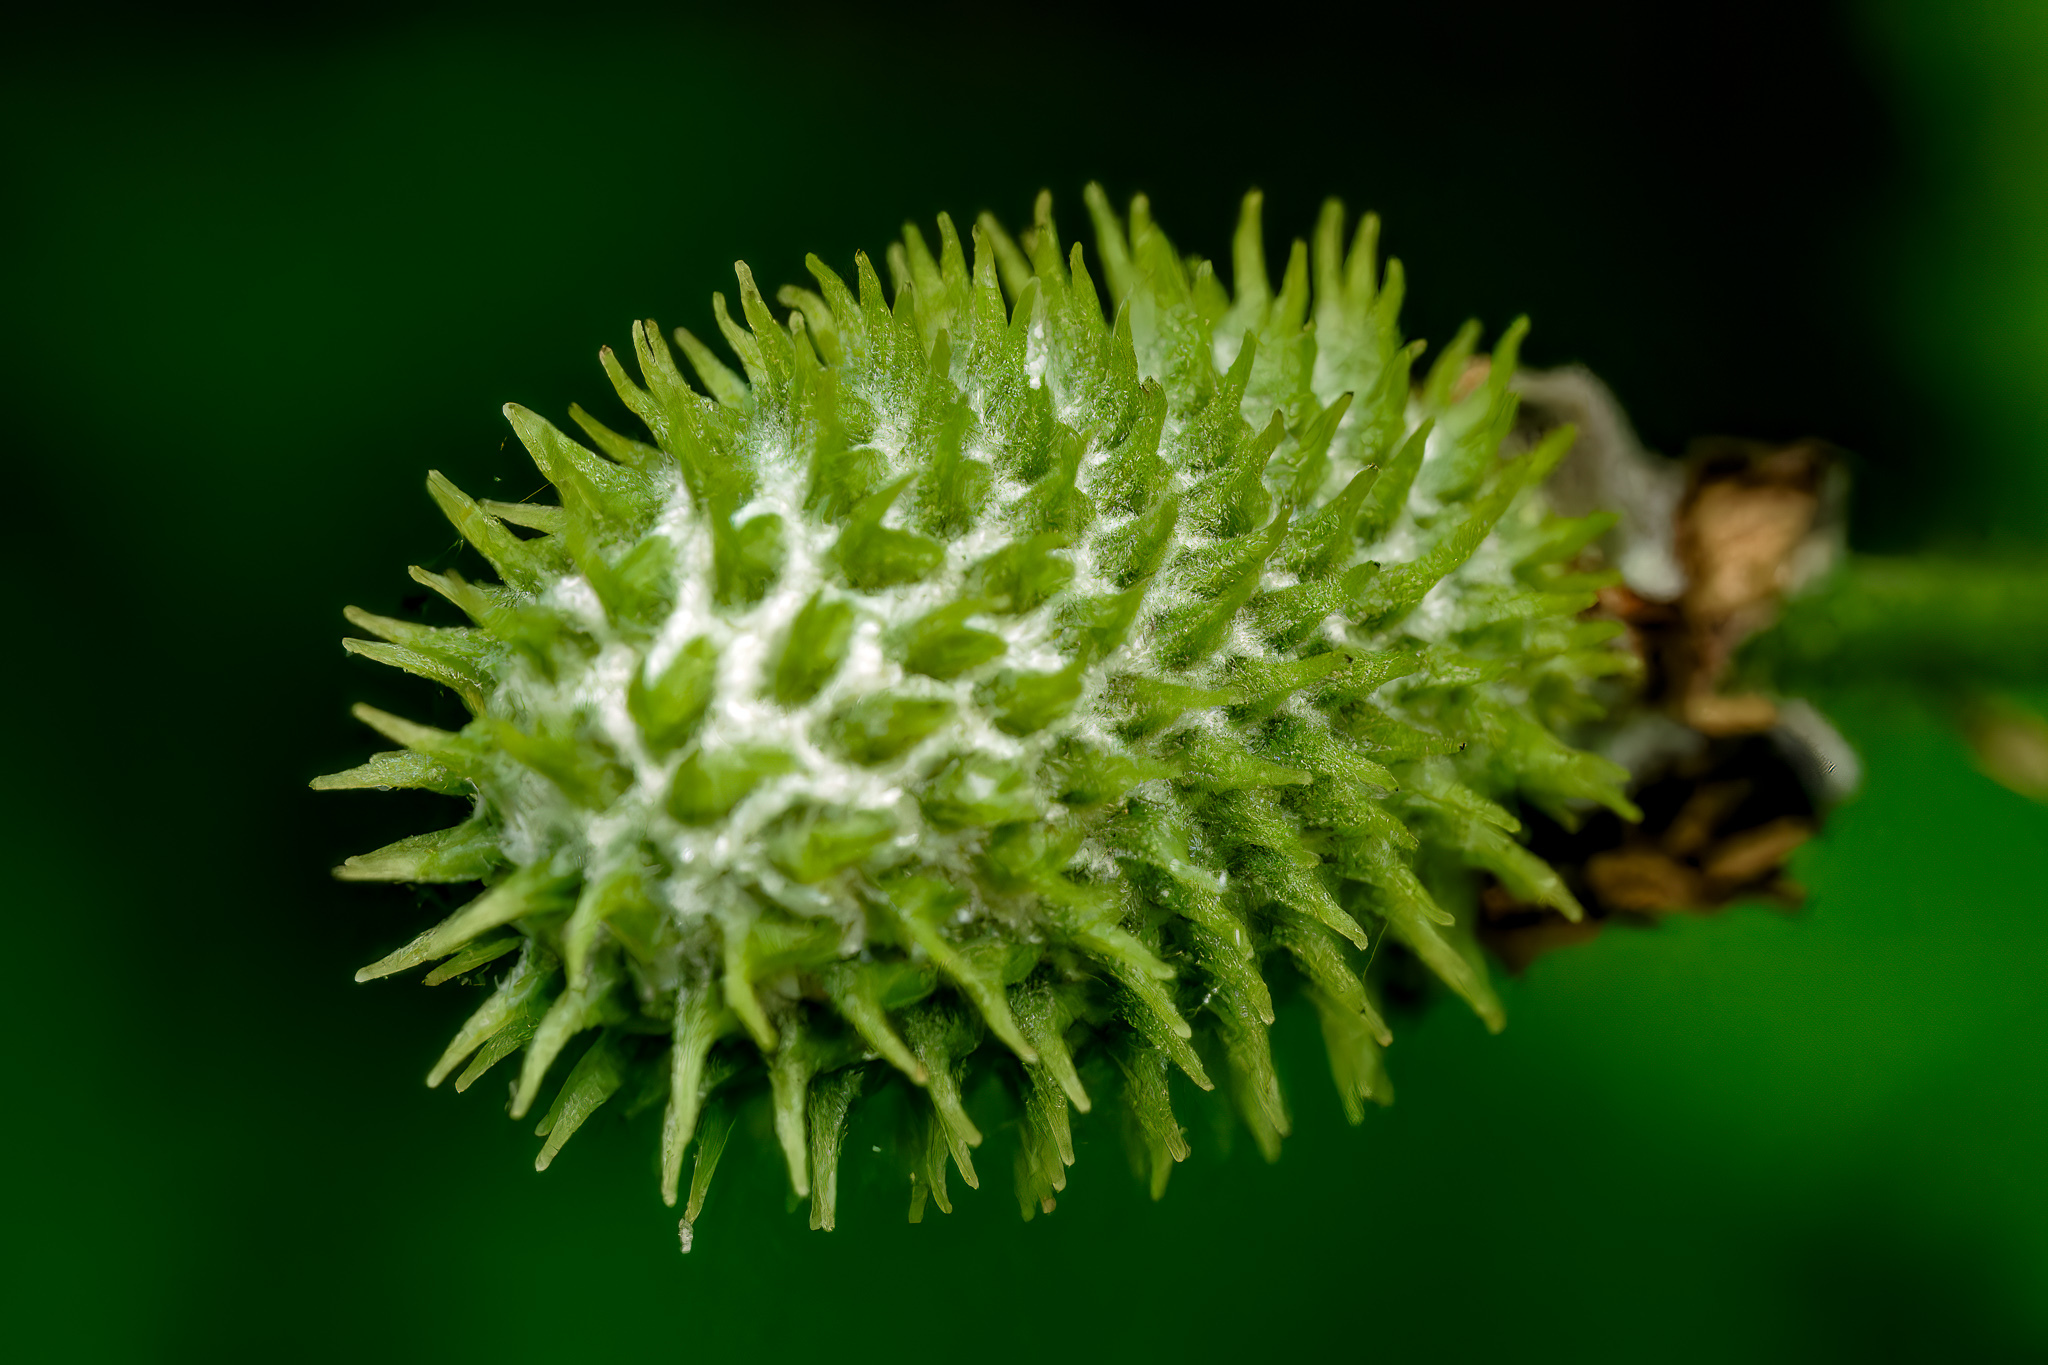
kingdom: Plantae
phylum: Tracheophyta
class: Magnoliopsida
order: Ranunculales
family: Ranunculaceae
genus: Anemone
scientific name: Anemone virginiana
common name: Tall anemone
